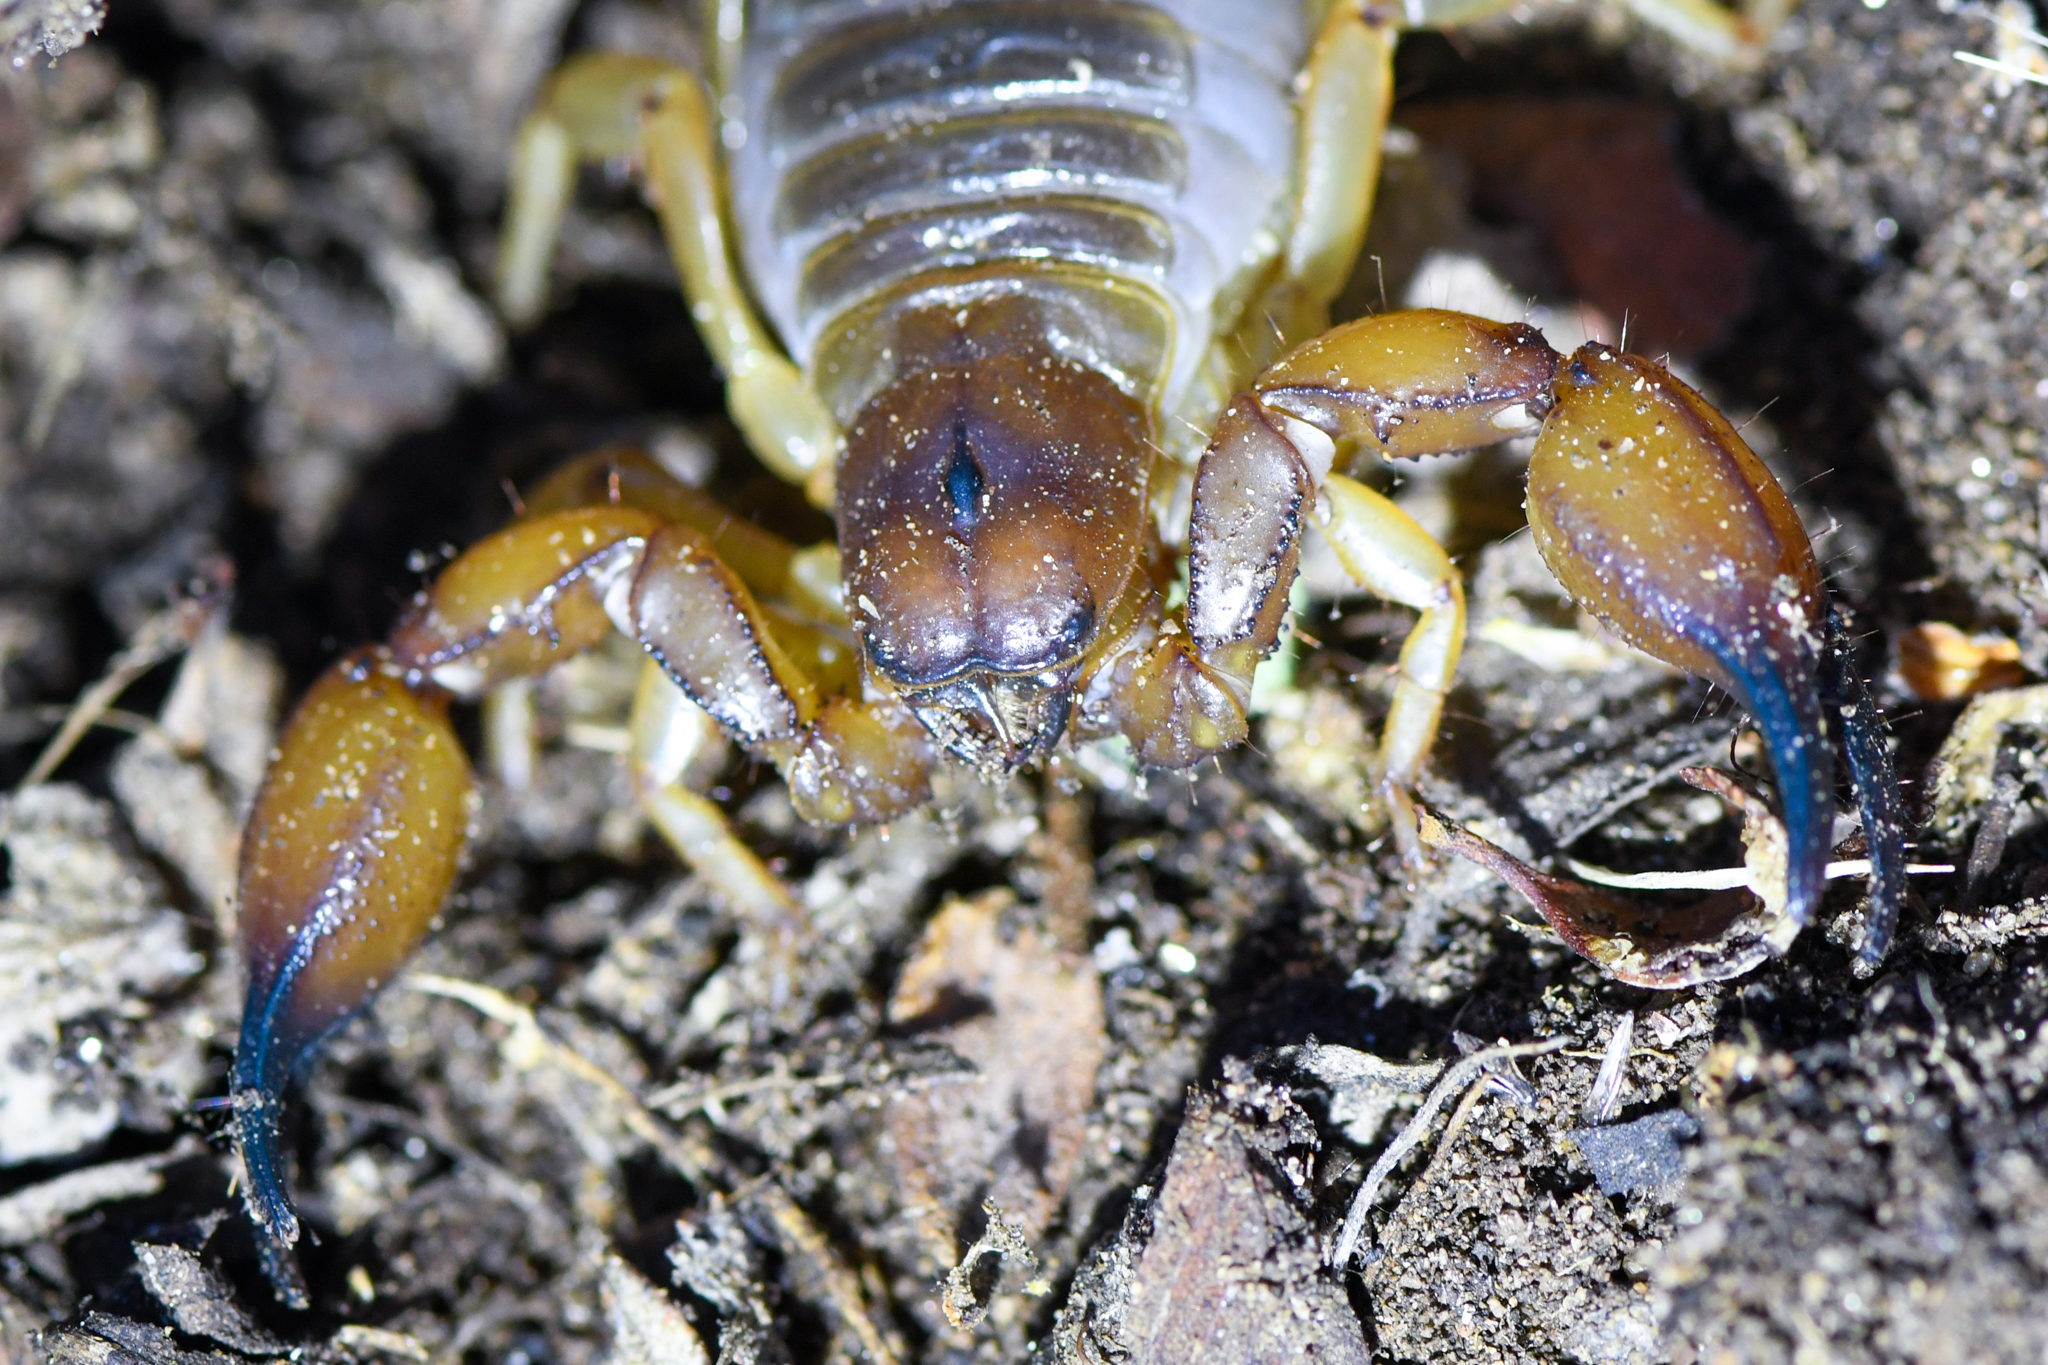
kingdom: Animalia
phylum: Arthropoda
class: Arachnida
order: Scorpiones
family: Chactidae
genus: Anuroctonus
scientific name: Anuroctonus pococki
